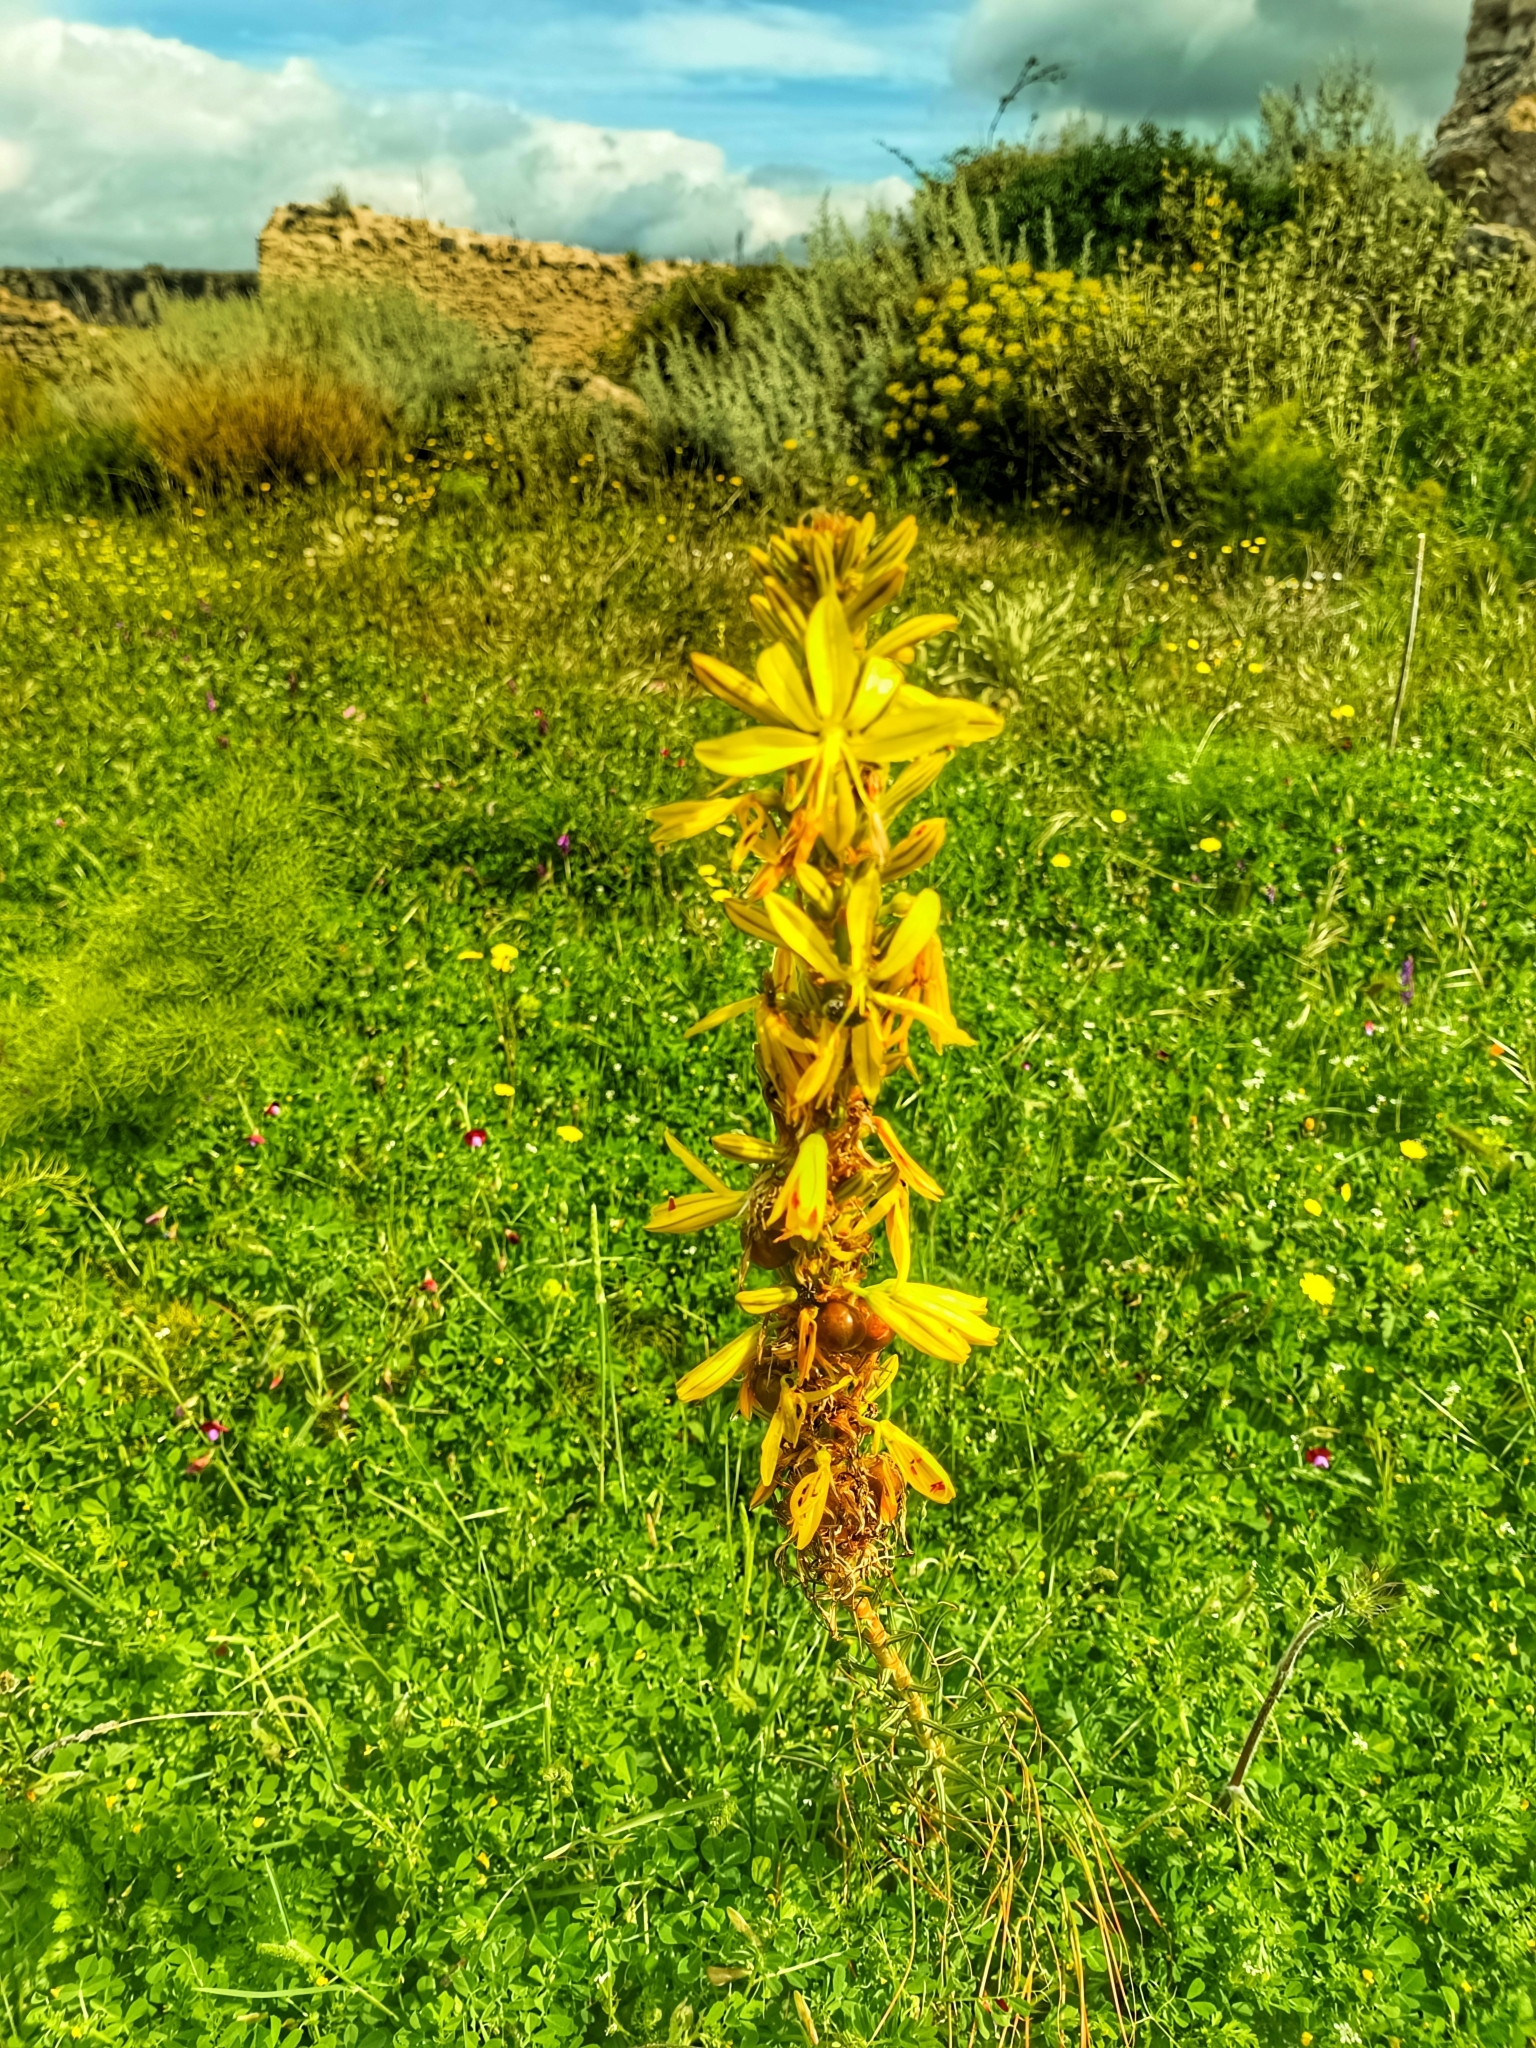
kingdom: Plantae
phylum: Tracheophyta
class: Liliopsida
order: Asparagales
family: Asphodelaceae
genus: Asphodeline
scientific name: Asphodeline lutea
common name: Yellow asphodel
